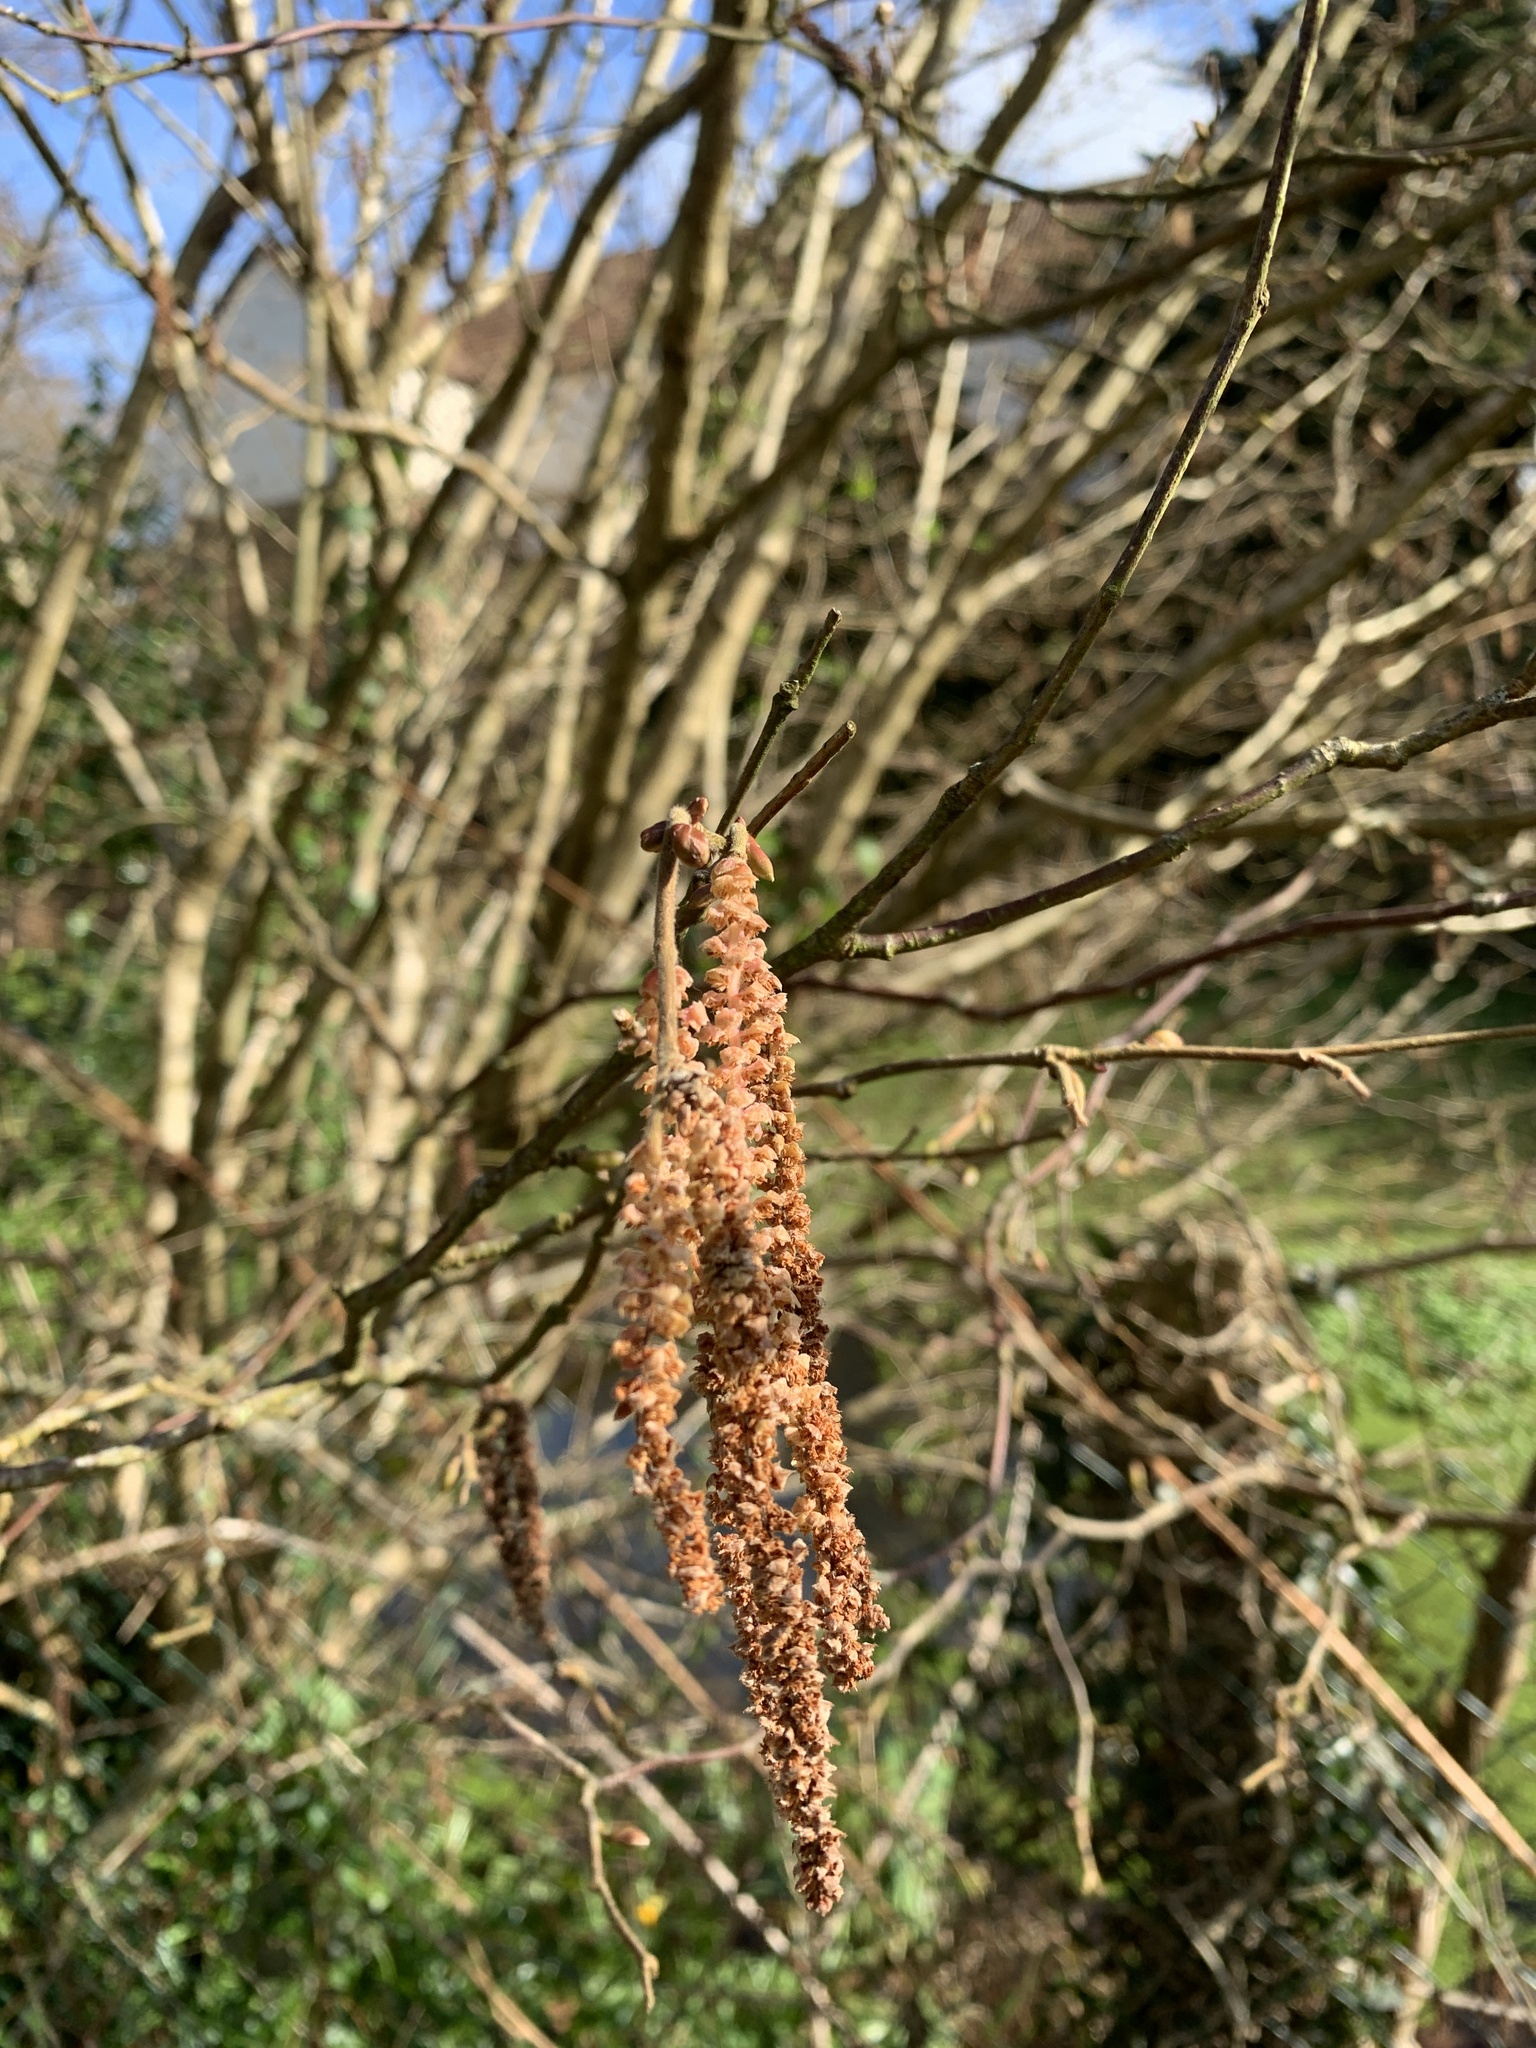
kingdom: Plantae
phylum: Tracheophyta
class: Magnoliopsida
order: Fagales
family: Betulaceae
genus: Corylus
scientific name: Corylus avellana
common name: European hazel
